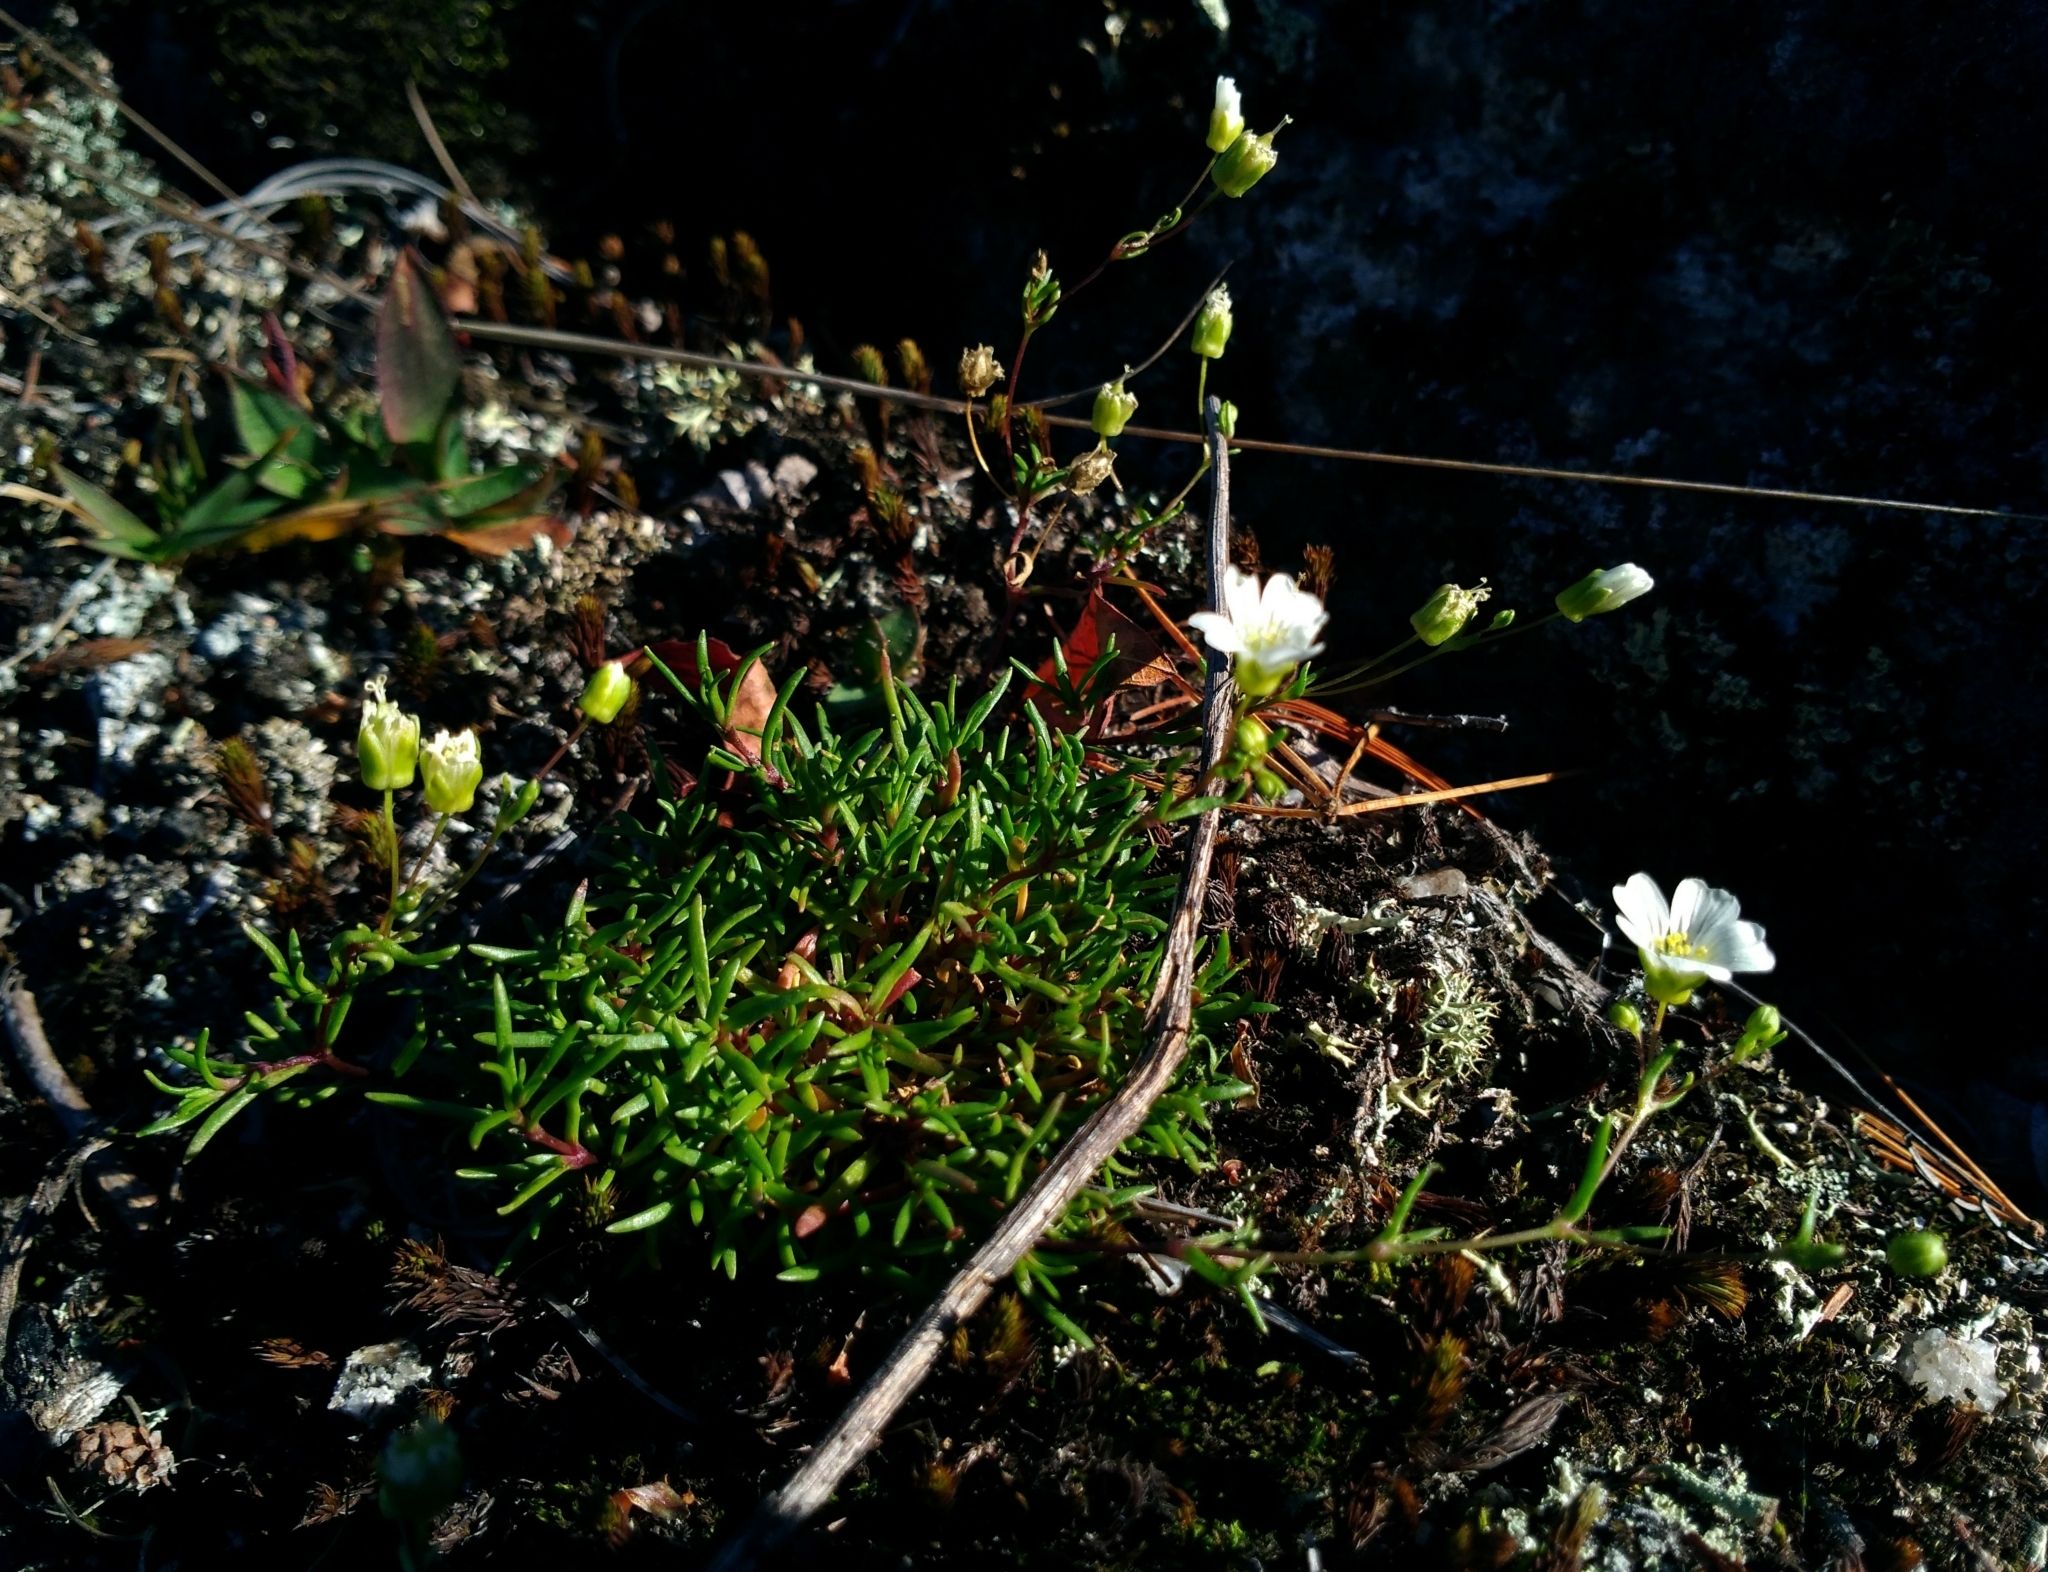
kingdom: Plantae
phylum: Tracheophyta
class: Magnoliopsida
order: Caryophyllales
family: Caryophyllaceae
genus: Geocarpon
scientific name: Geocarpon groenlandicum
